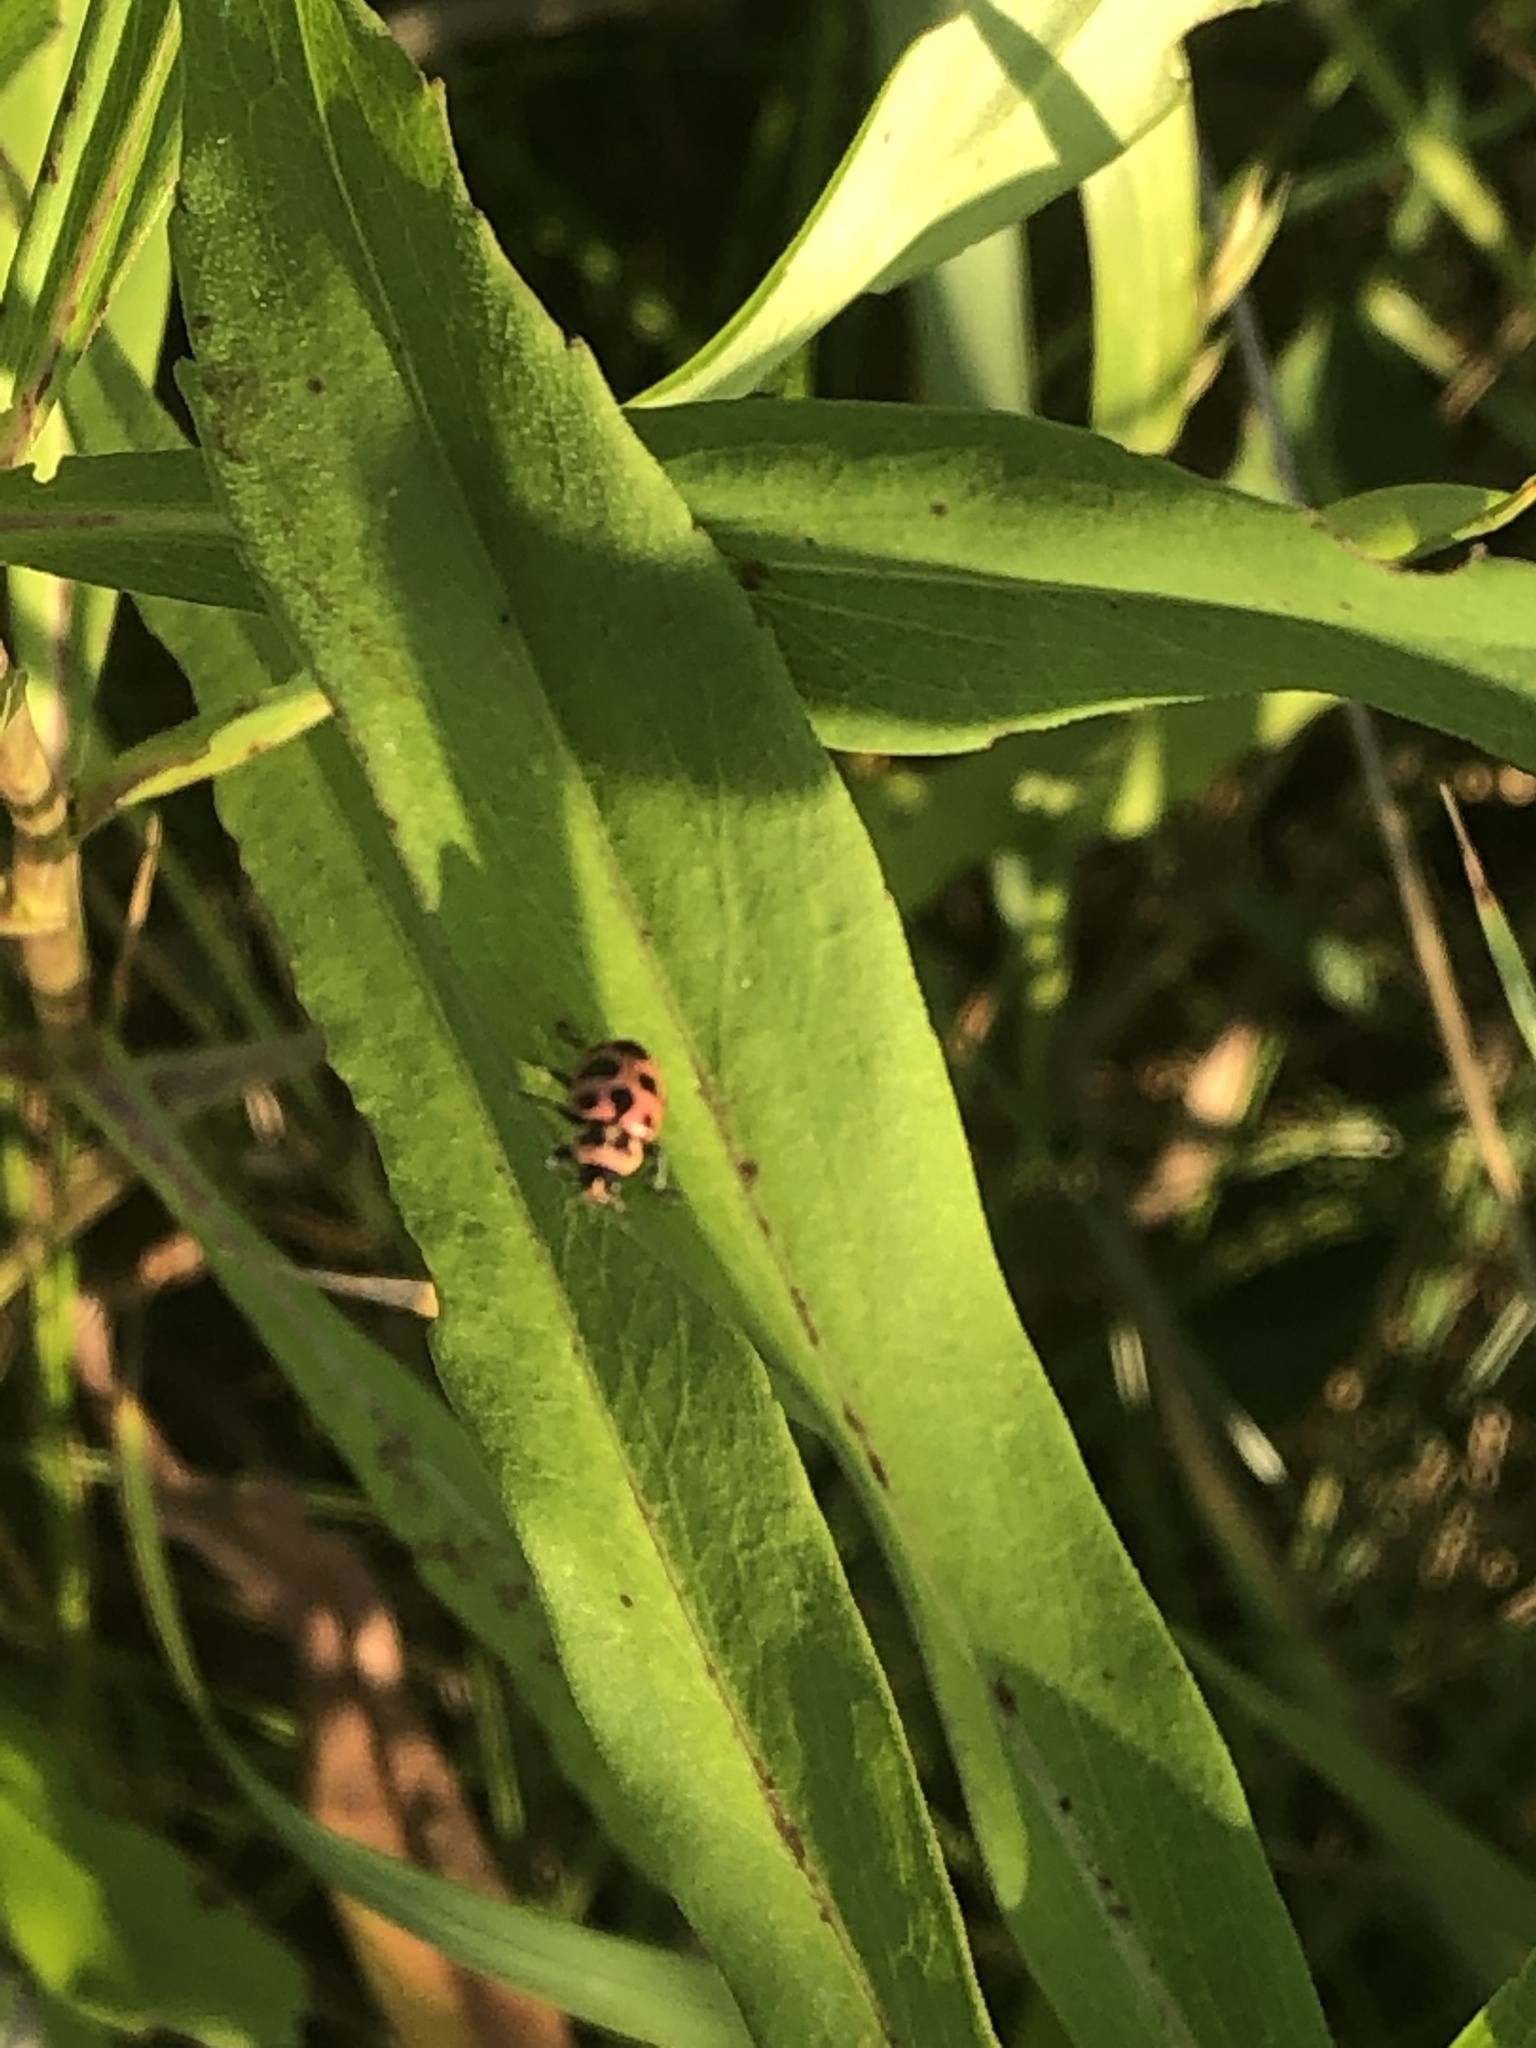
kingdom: Animalia
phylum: Arthropoda
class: Insecta
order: Coleoptera
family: Coccinellidae
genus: Coleomegilla
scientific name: Coleomegilla maculata
